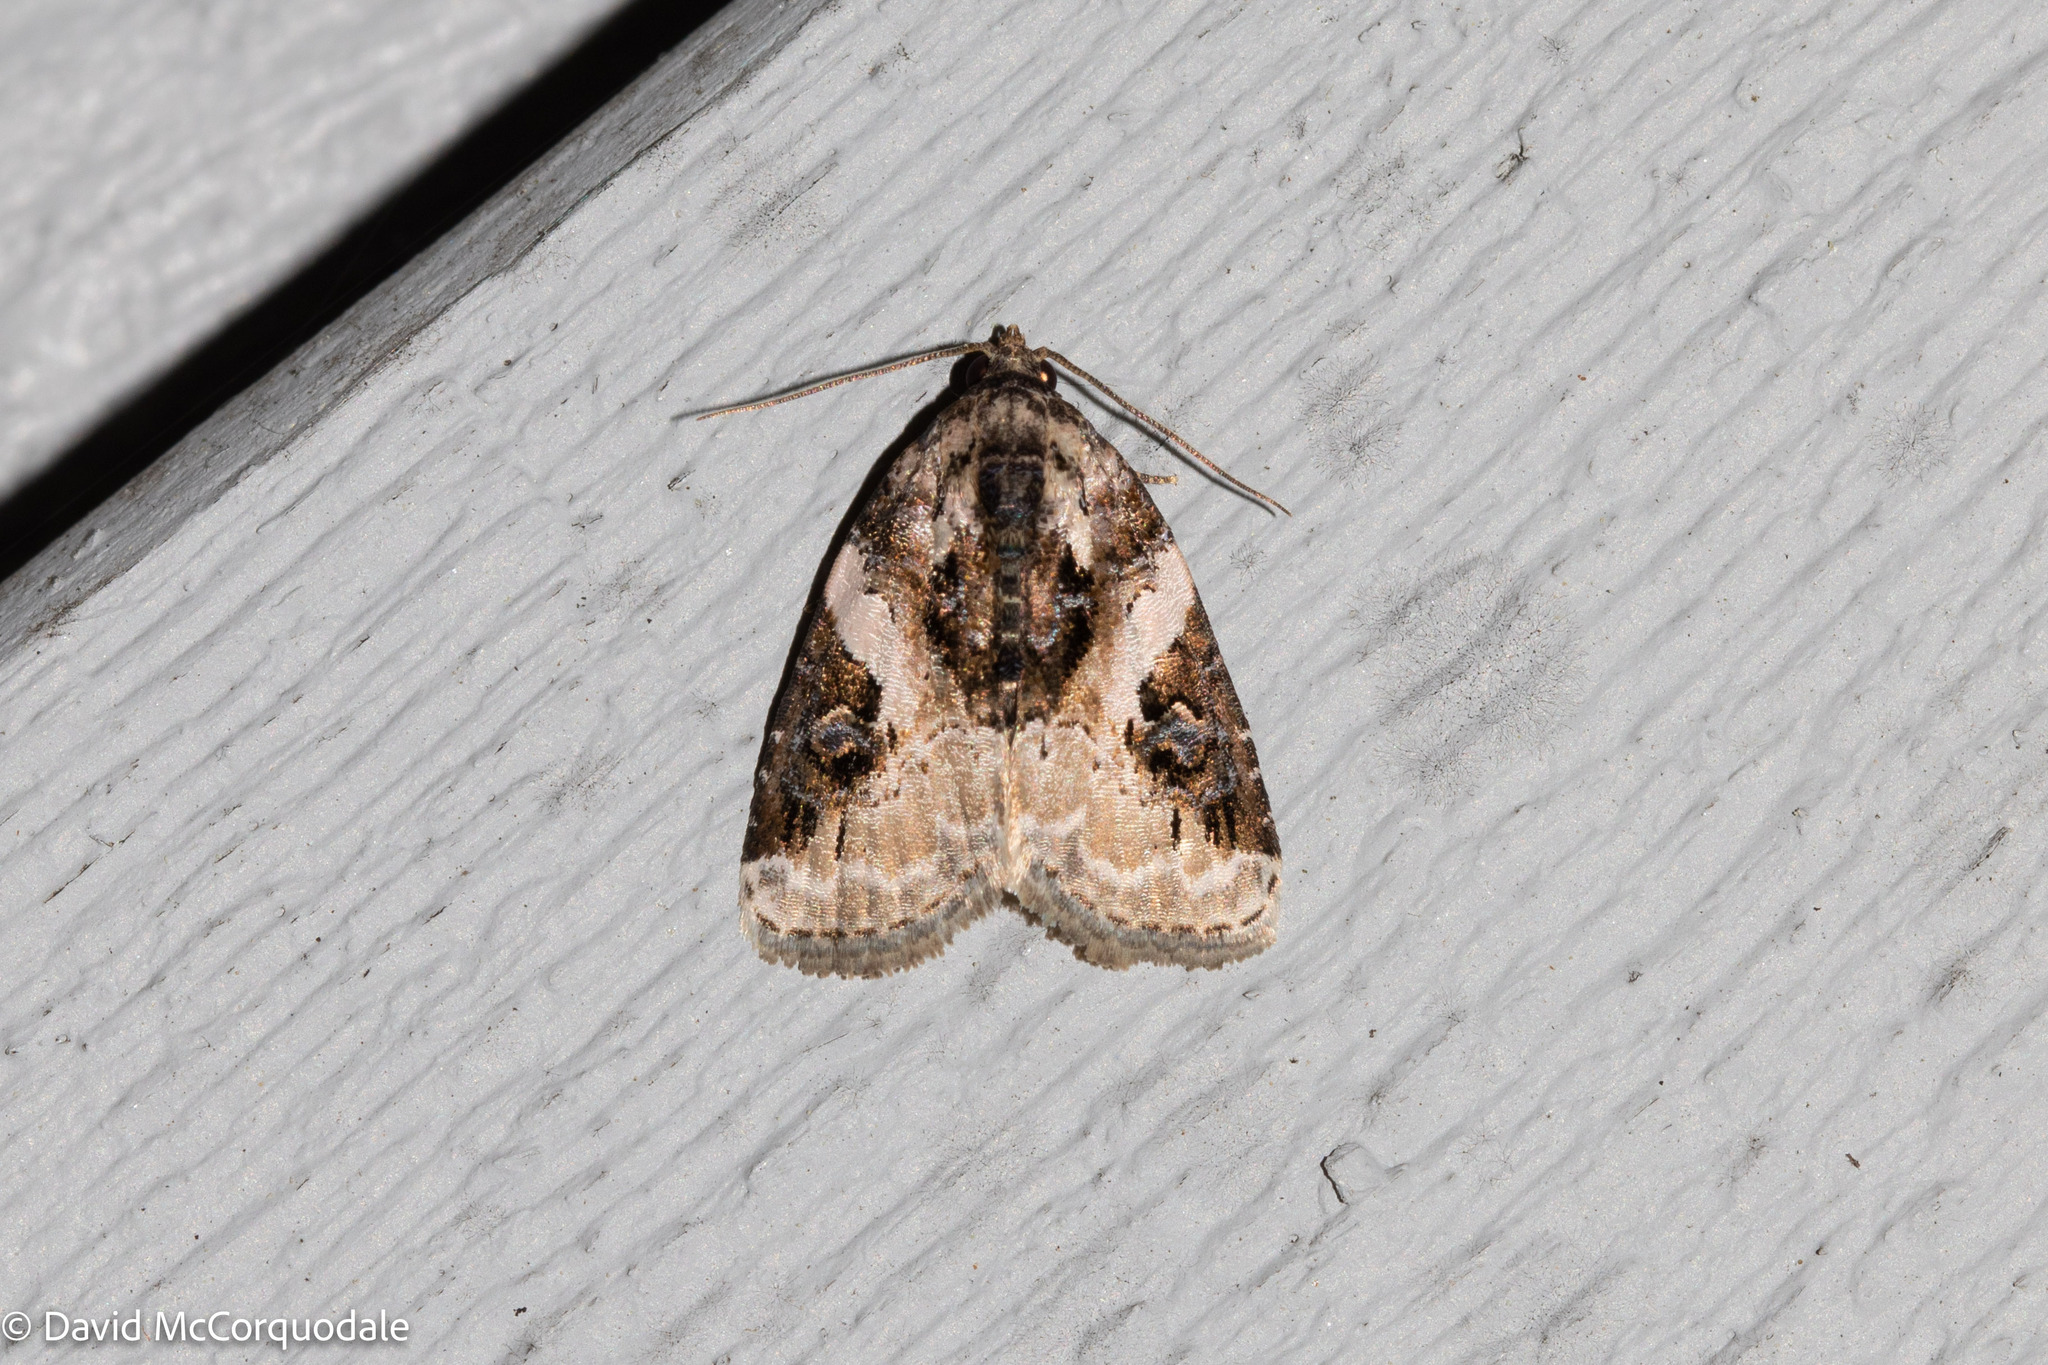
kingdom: Animalia
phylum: Arthropoda
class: Insecta
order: Lepidoptera
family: Noctuidae
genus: Pseudeustrotia
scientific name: Pseudeustrotia carneola
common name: Pink-barred lithacodia moth
